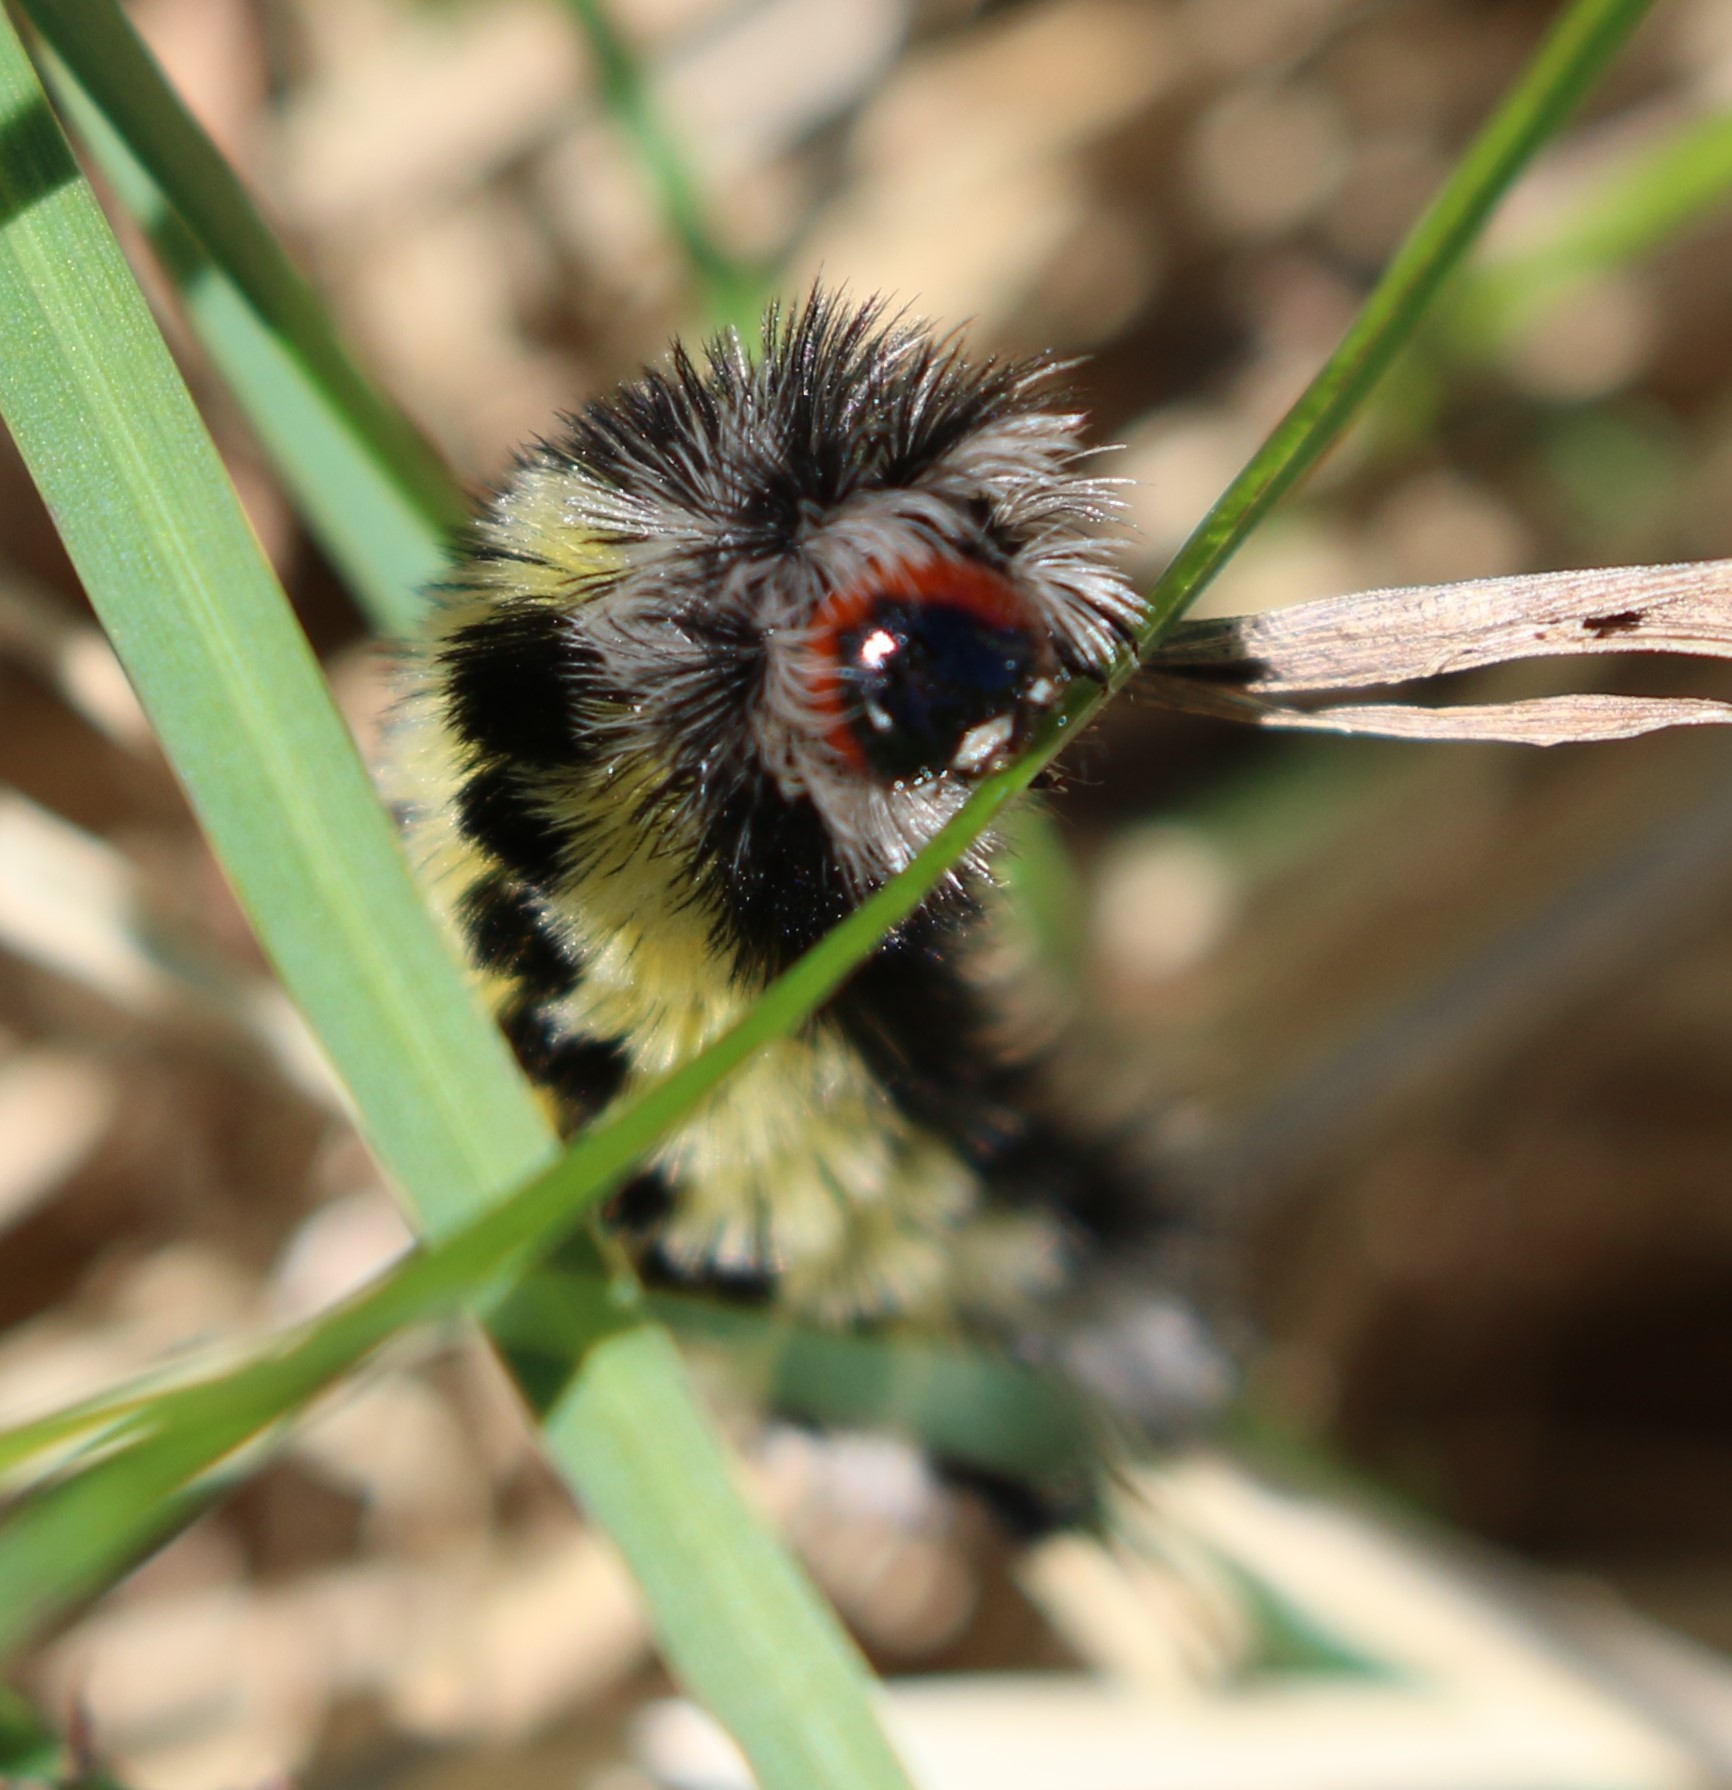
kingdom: Animalia
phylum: Arthropoda
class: Insecta
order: Lepidoptera
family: Erebidae
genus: Ctenucha
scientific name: Ctenucha virginica
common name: Virginia ctenucha moth
